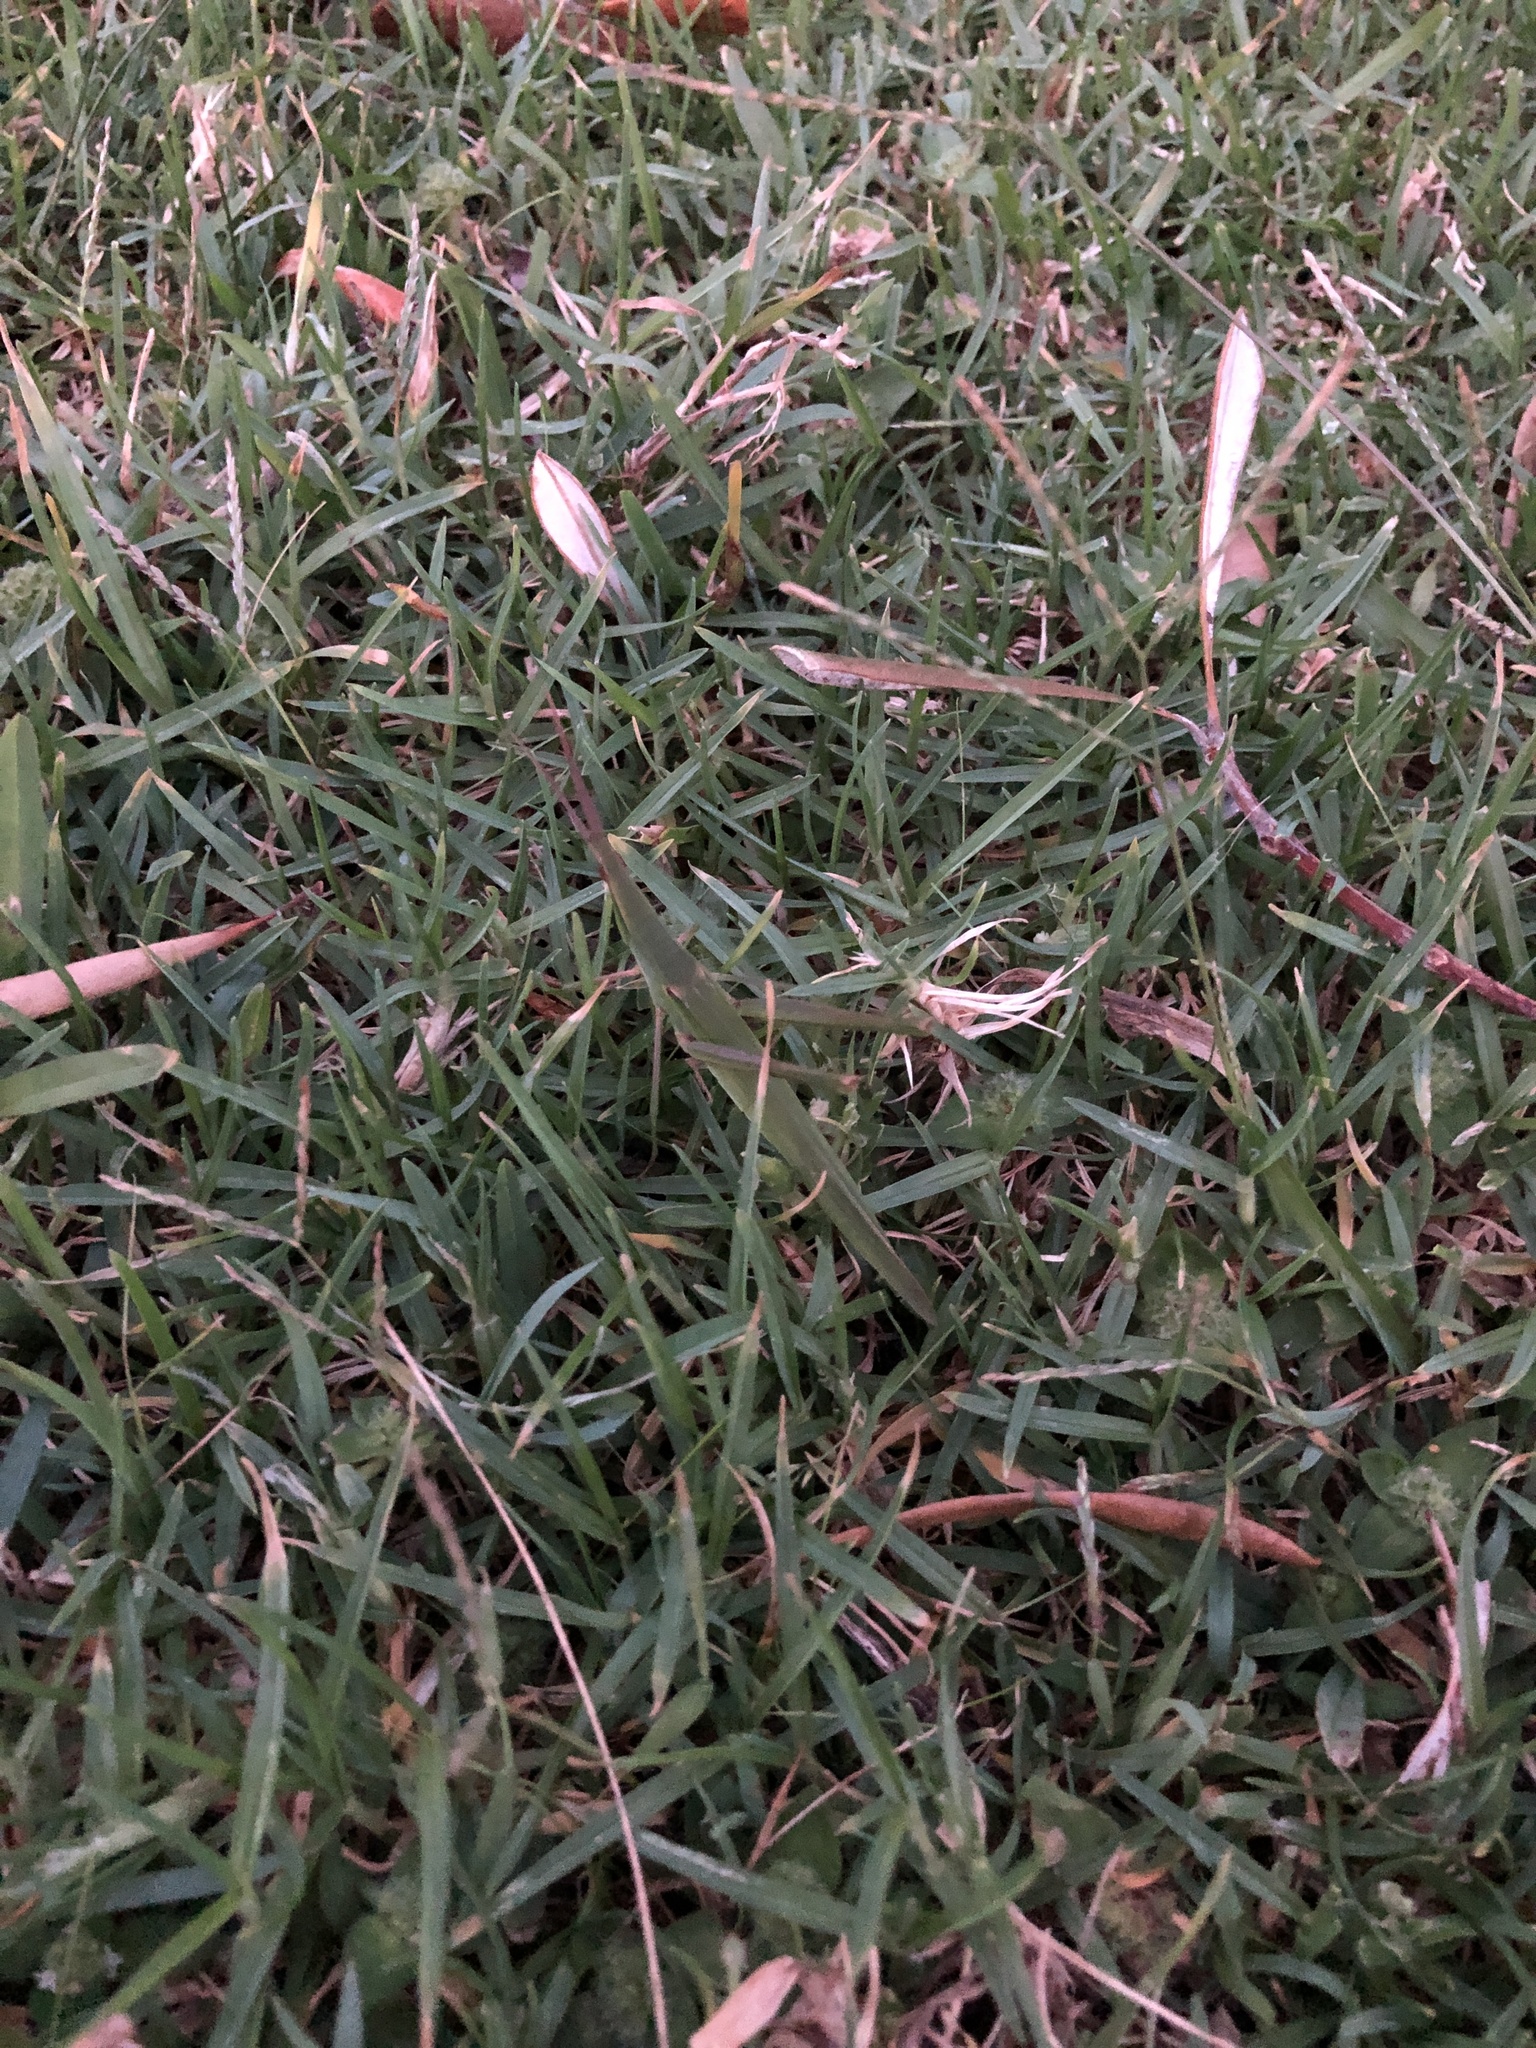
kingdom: Animalia
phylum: Arthropoda
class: Insecta
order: Orthoptera
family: Acrididae
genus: Acrida
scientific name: Acrida conica
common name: Giant green slantface
